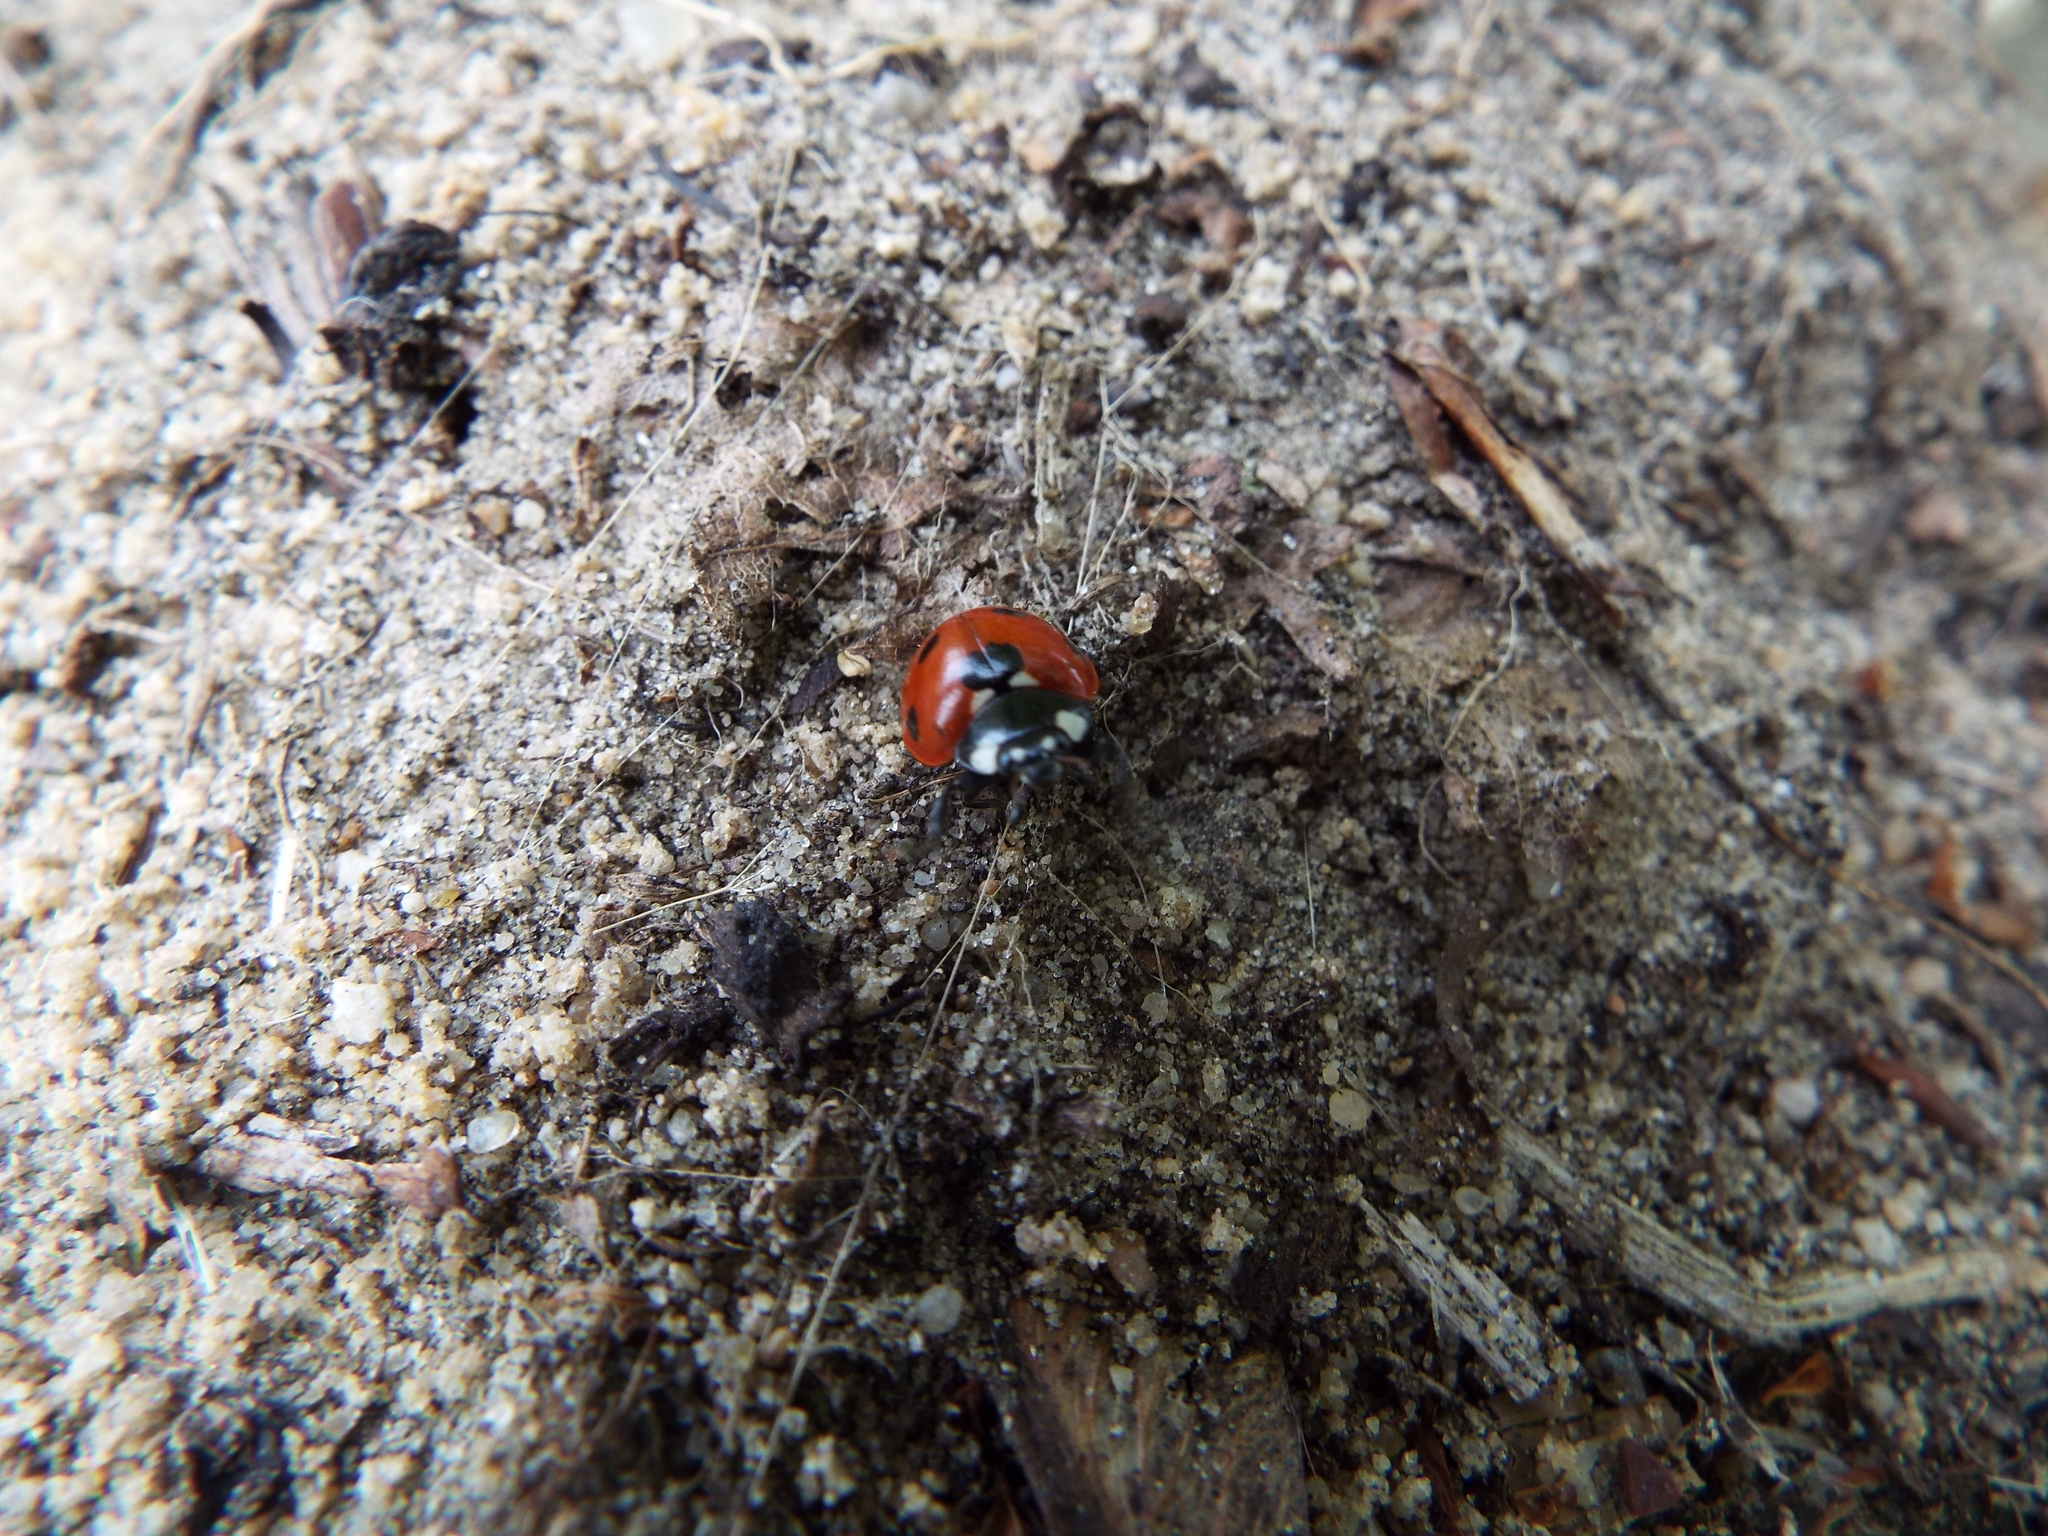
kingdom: Animalia
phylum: Arthropoda
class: Insecta
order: Coleoptera
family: Coccinellidae
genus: Coccinella
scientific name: Coccinella septempunctata
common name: Sevenspotted lady beetle
